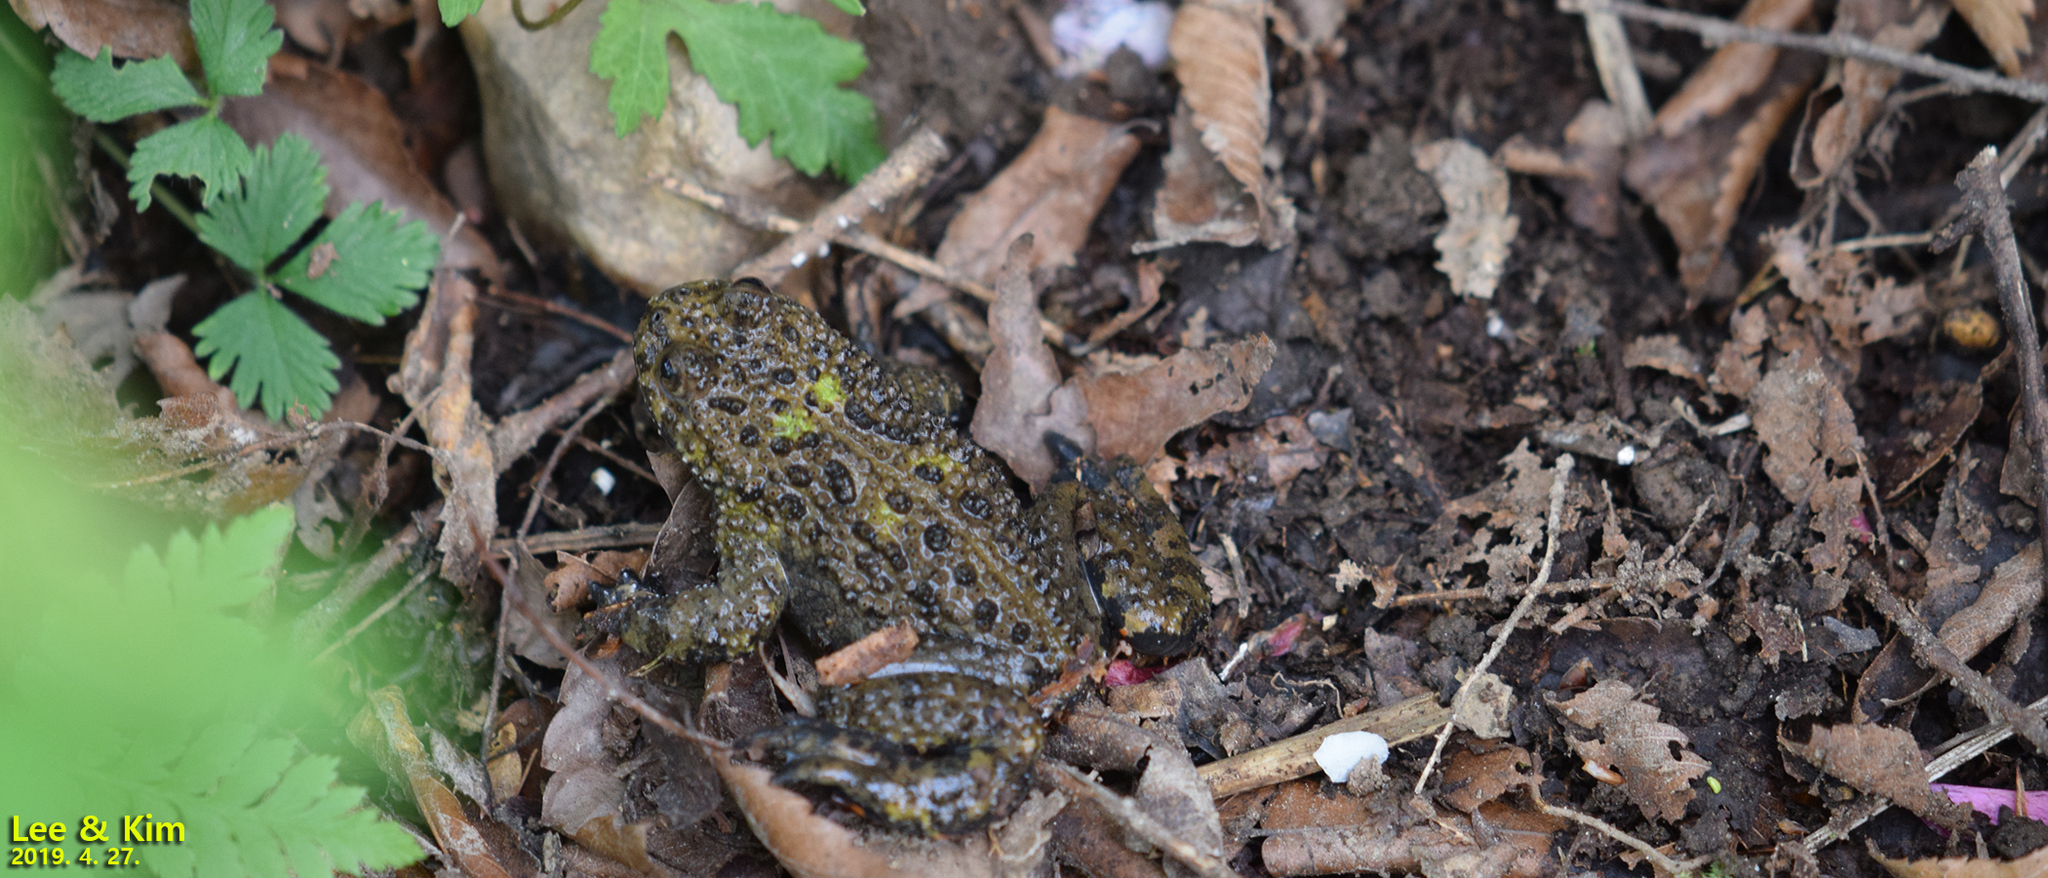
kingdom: Animalia
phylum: Chordata
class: Amphibia
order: Anura
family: Bombinatoridae
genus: Bombina
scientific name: Bombina orientalis
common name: Oriental firebelly toad
